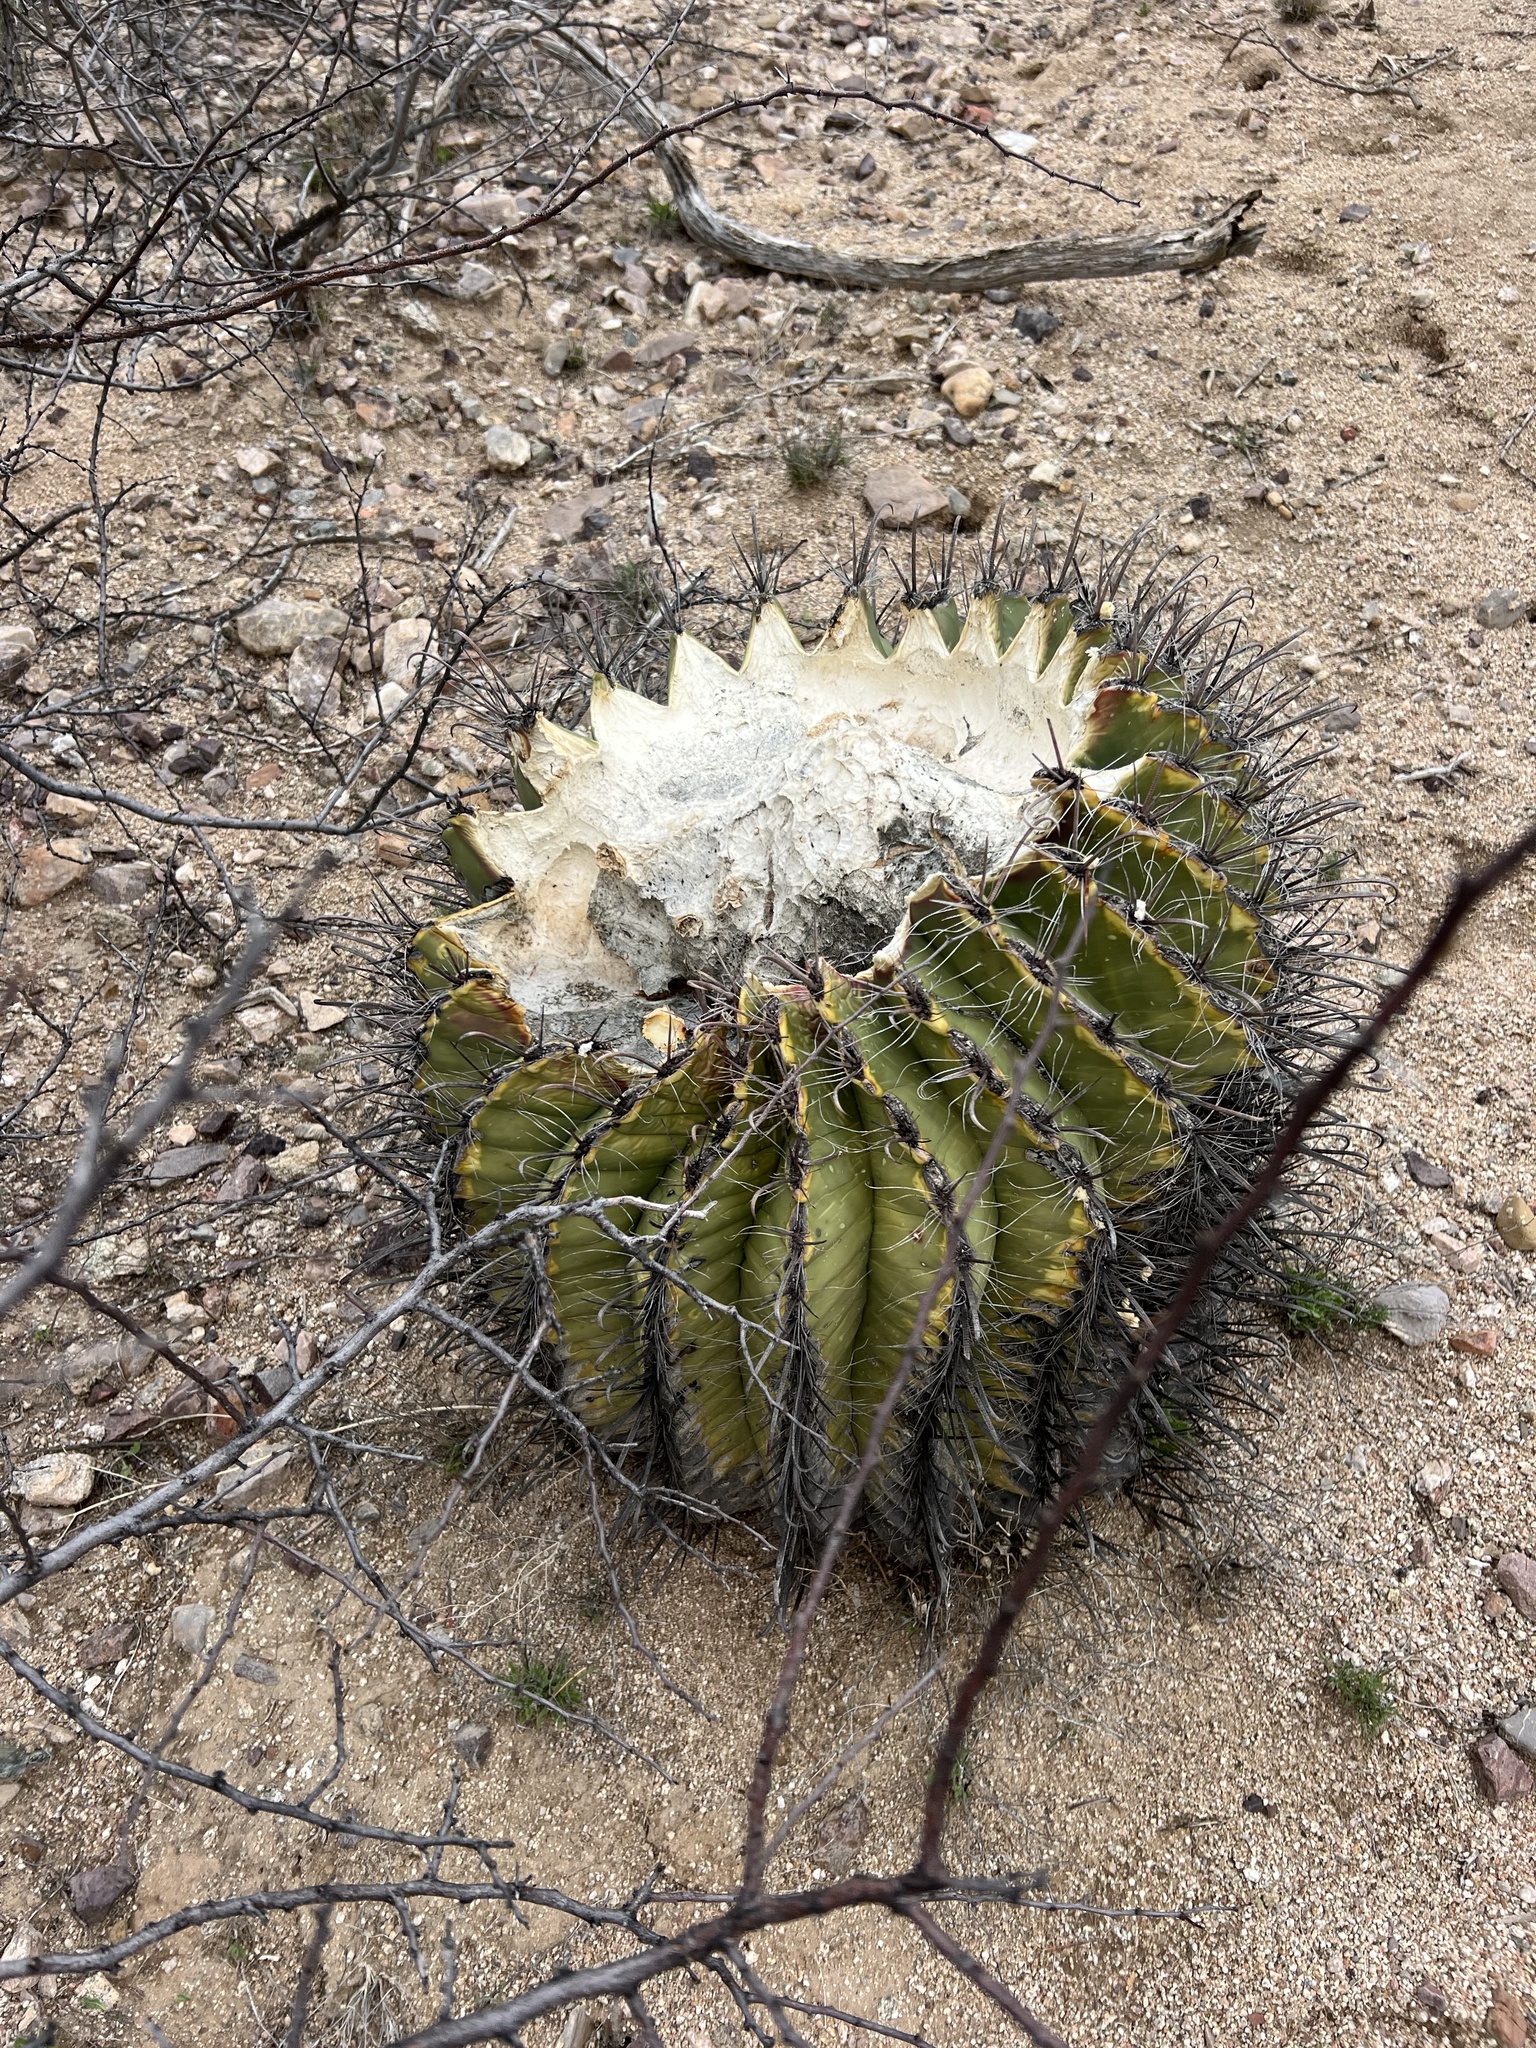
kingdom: Plantae
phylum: Tracheophyta
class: Magnoliopsida
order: Caryophyllales
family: Cactaceae
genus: Ferocactus
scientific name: Ferocactus wislizeni
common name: Candy barrel cactus
